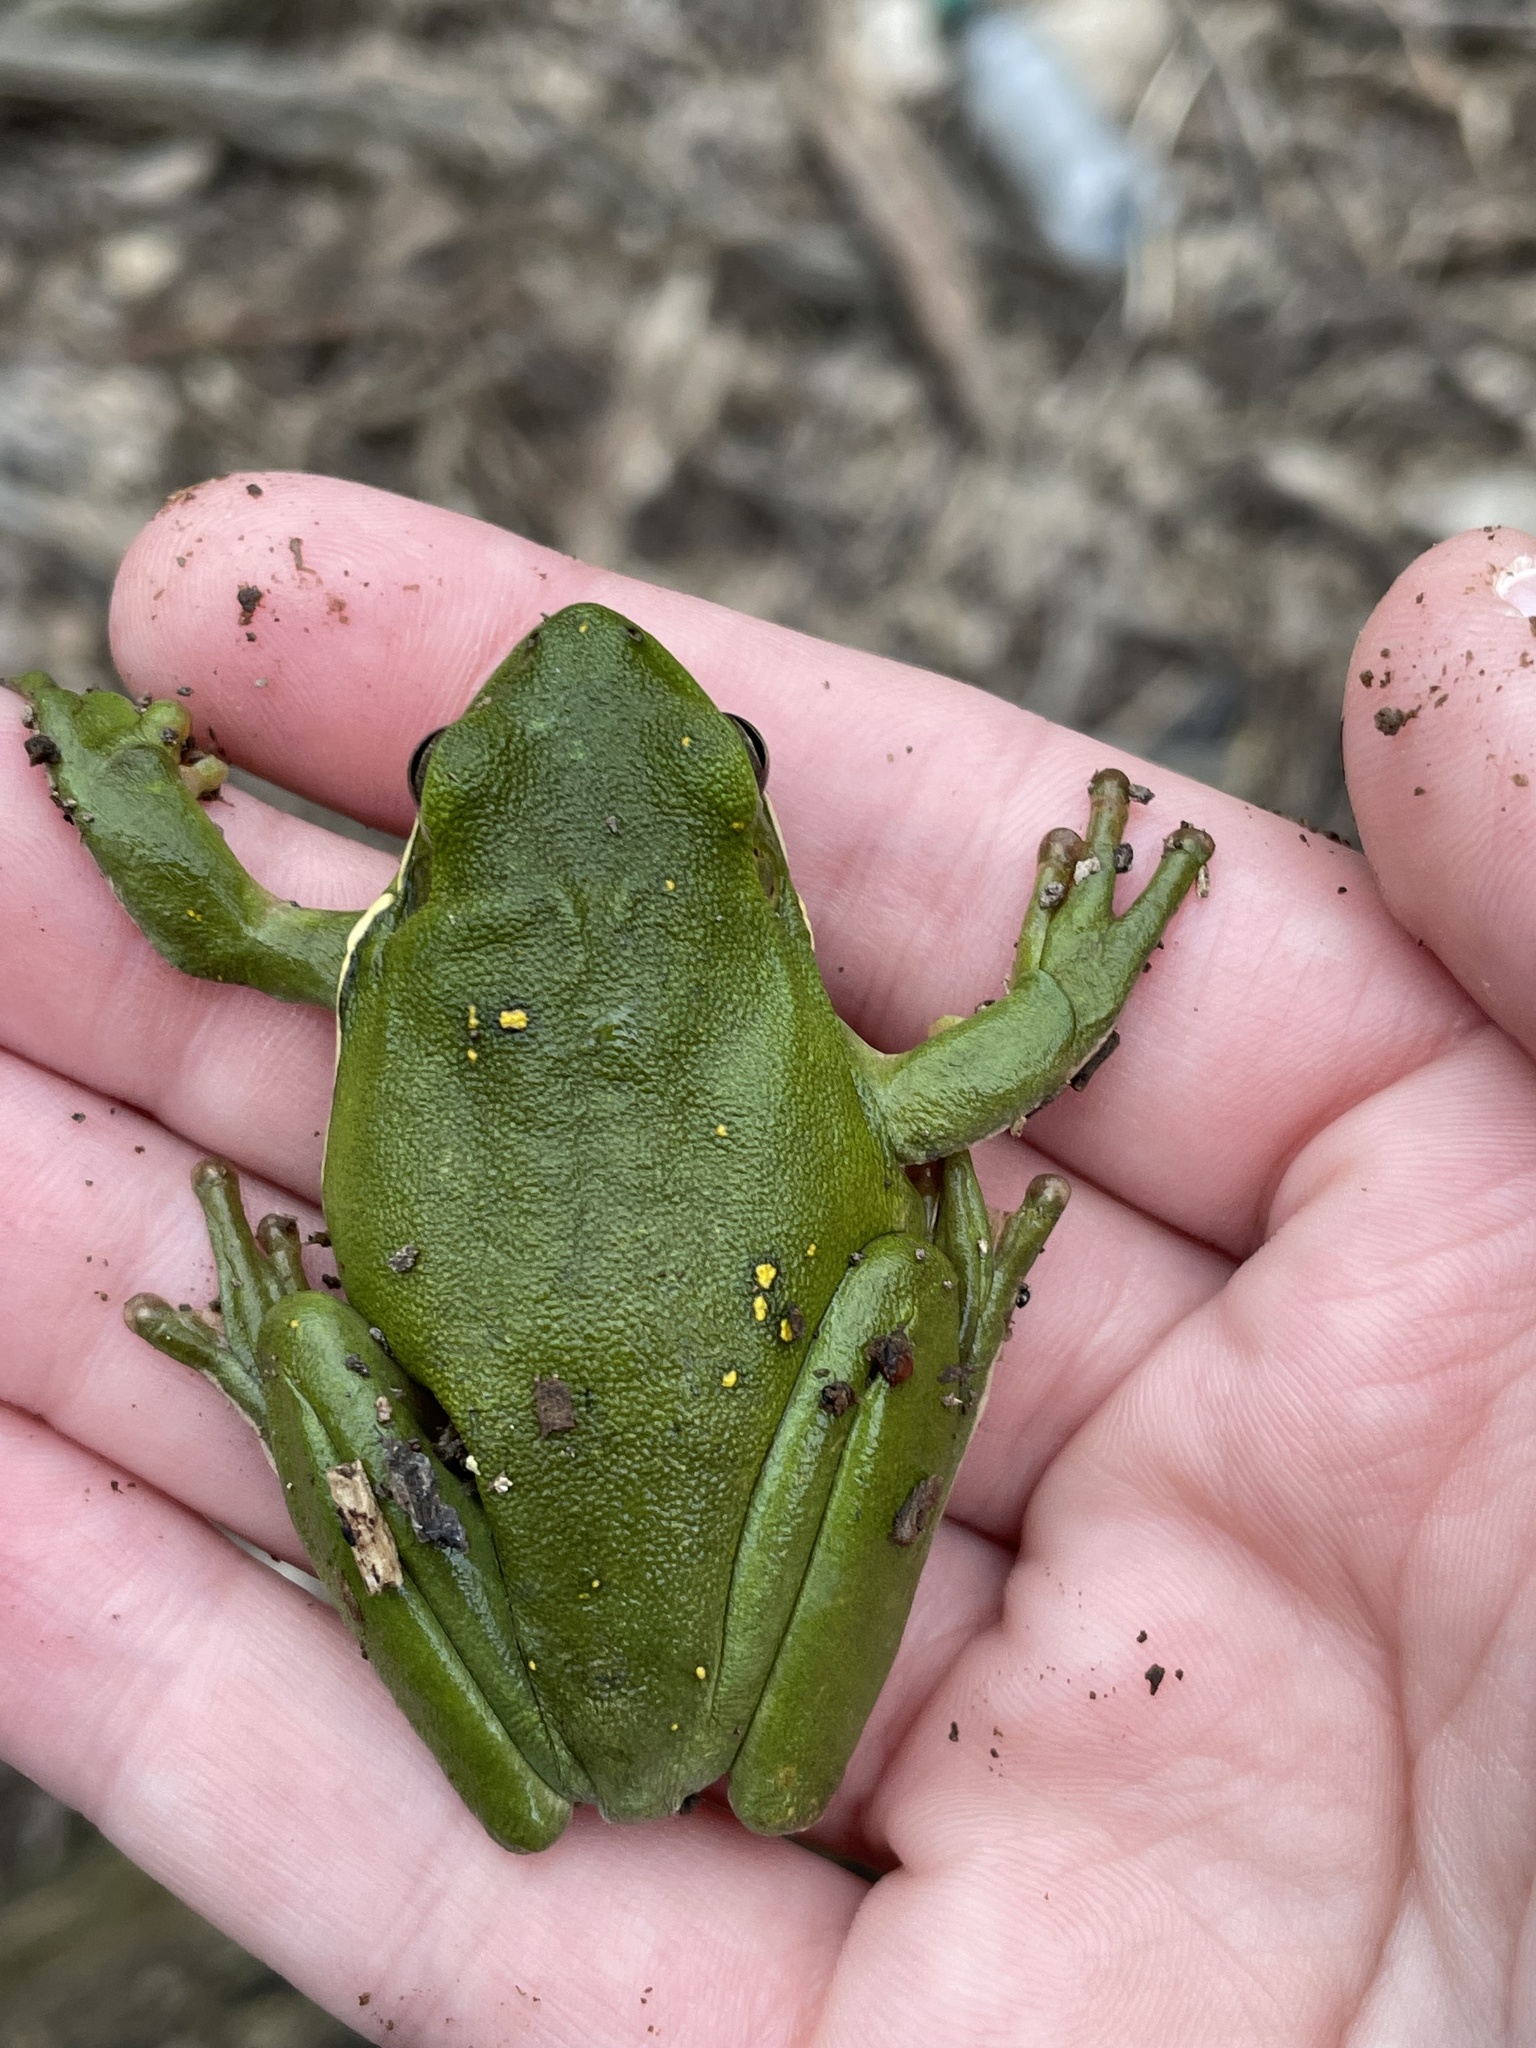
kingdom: Animalia
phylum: Chordata
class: Amphibia
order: Anura
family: Hylidae
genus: Dryophytes
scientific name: Dryophytes cinereus
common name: Green treefrog
